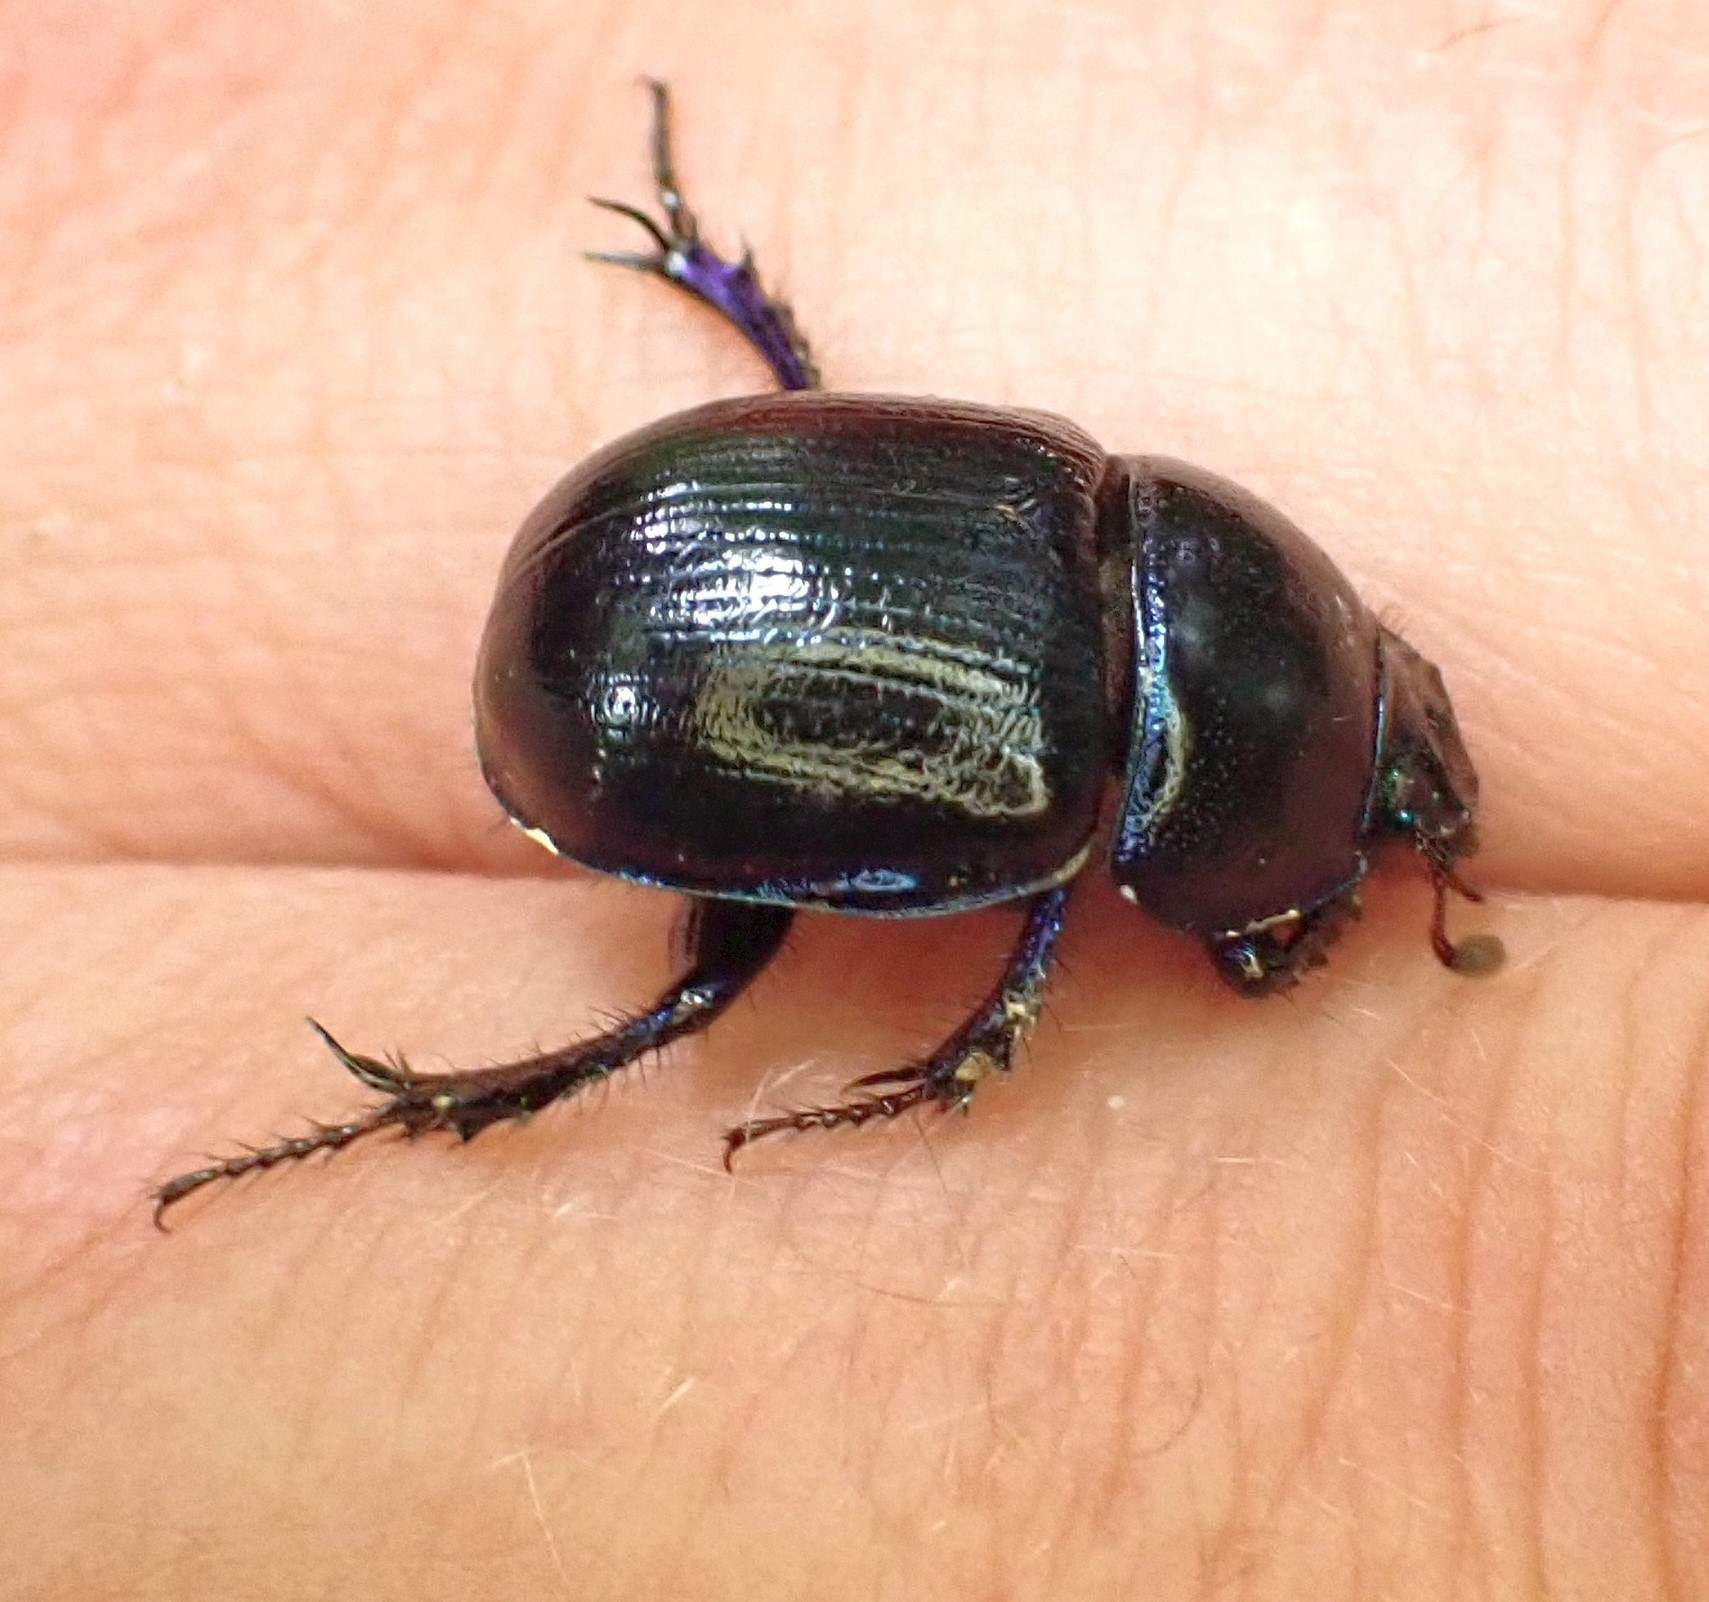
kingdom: Animalia
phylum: Arthropoda
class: Insecta
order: Coleoptera
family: Geotrupidae
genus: Anoplotrupes
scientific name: Anoplotrupes stercorosus
